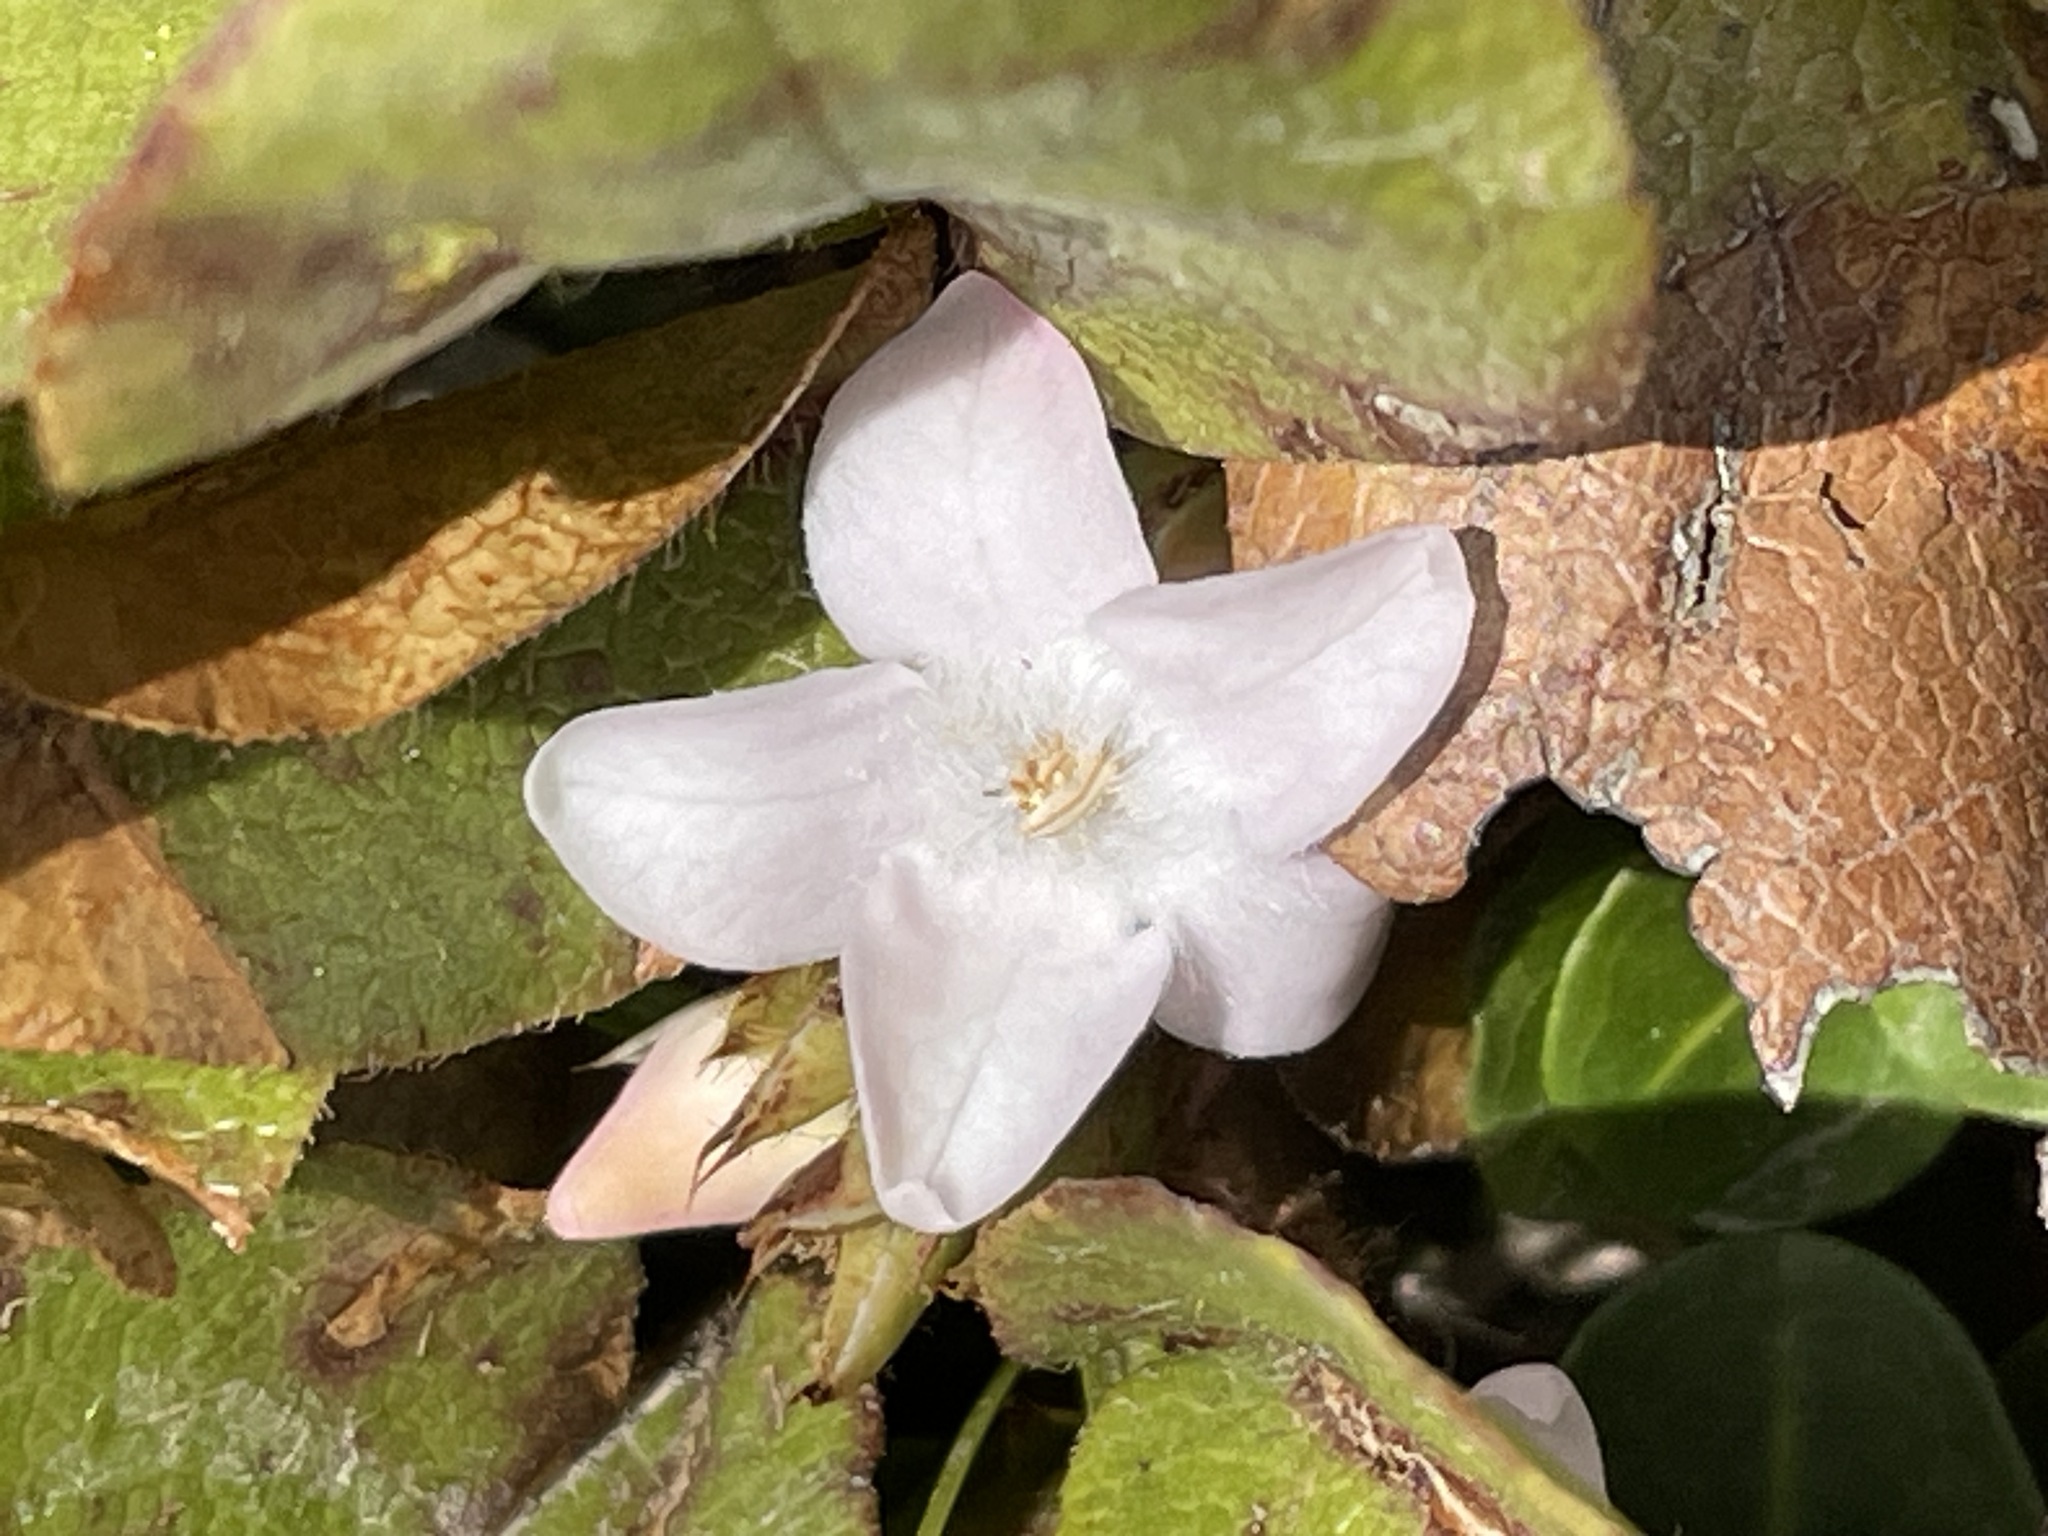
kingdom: Plantae
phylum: Tracheophyta
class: Magnoliopsida
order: Ericales
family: Ericaceae
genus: Epigaea
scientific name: Epigaea repens
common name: Gravelroot
